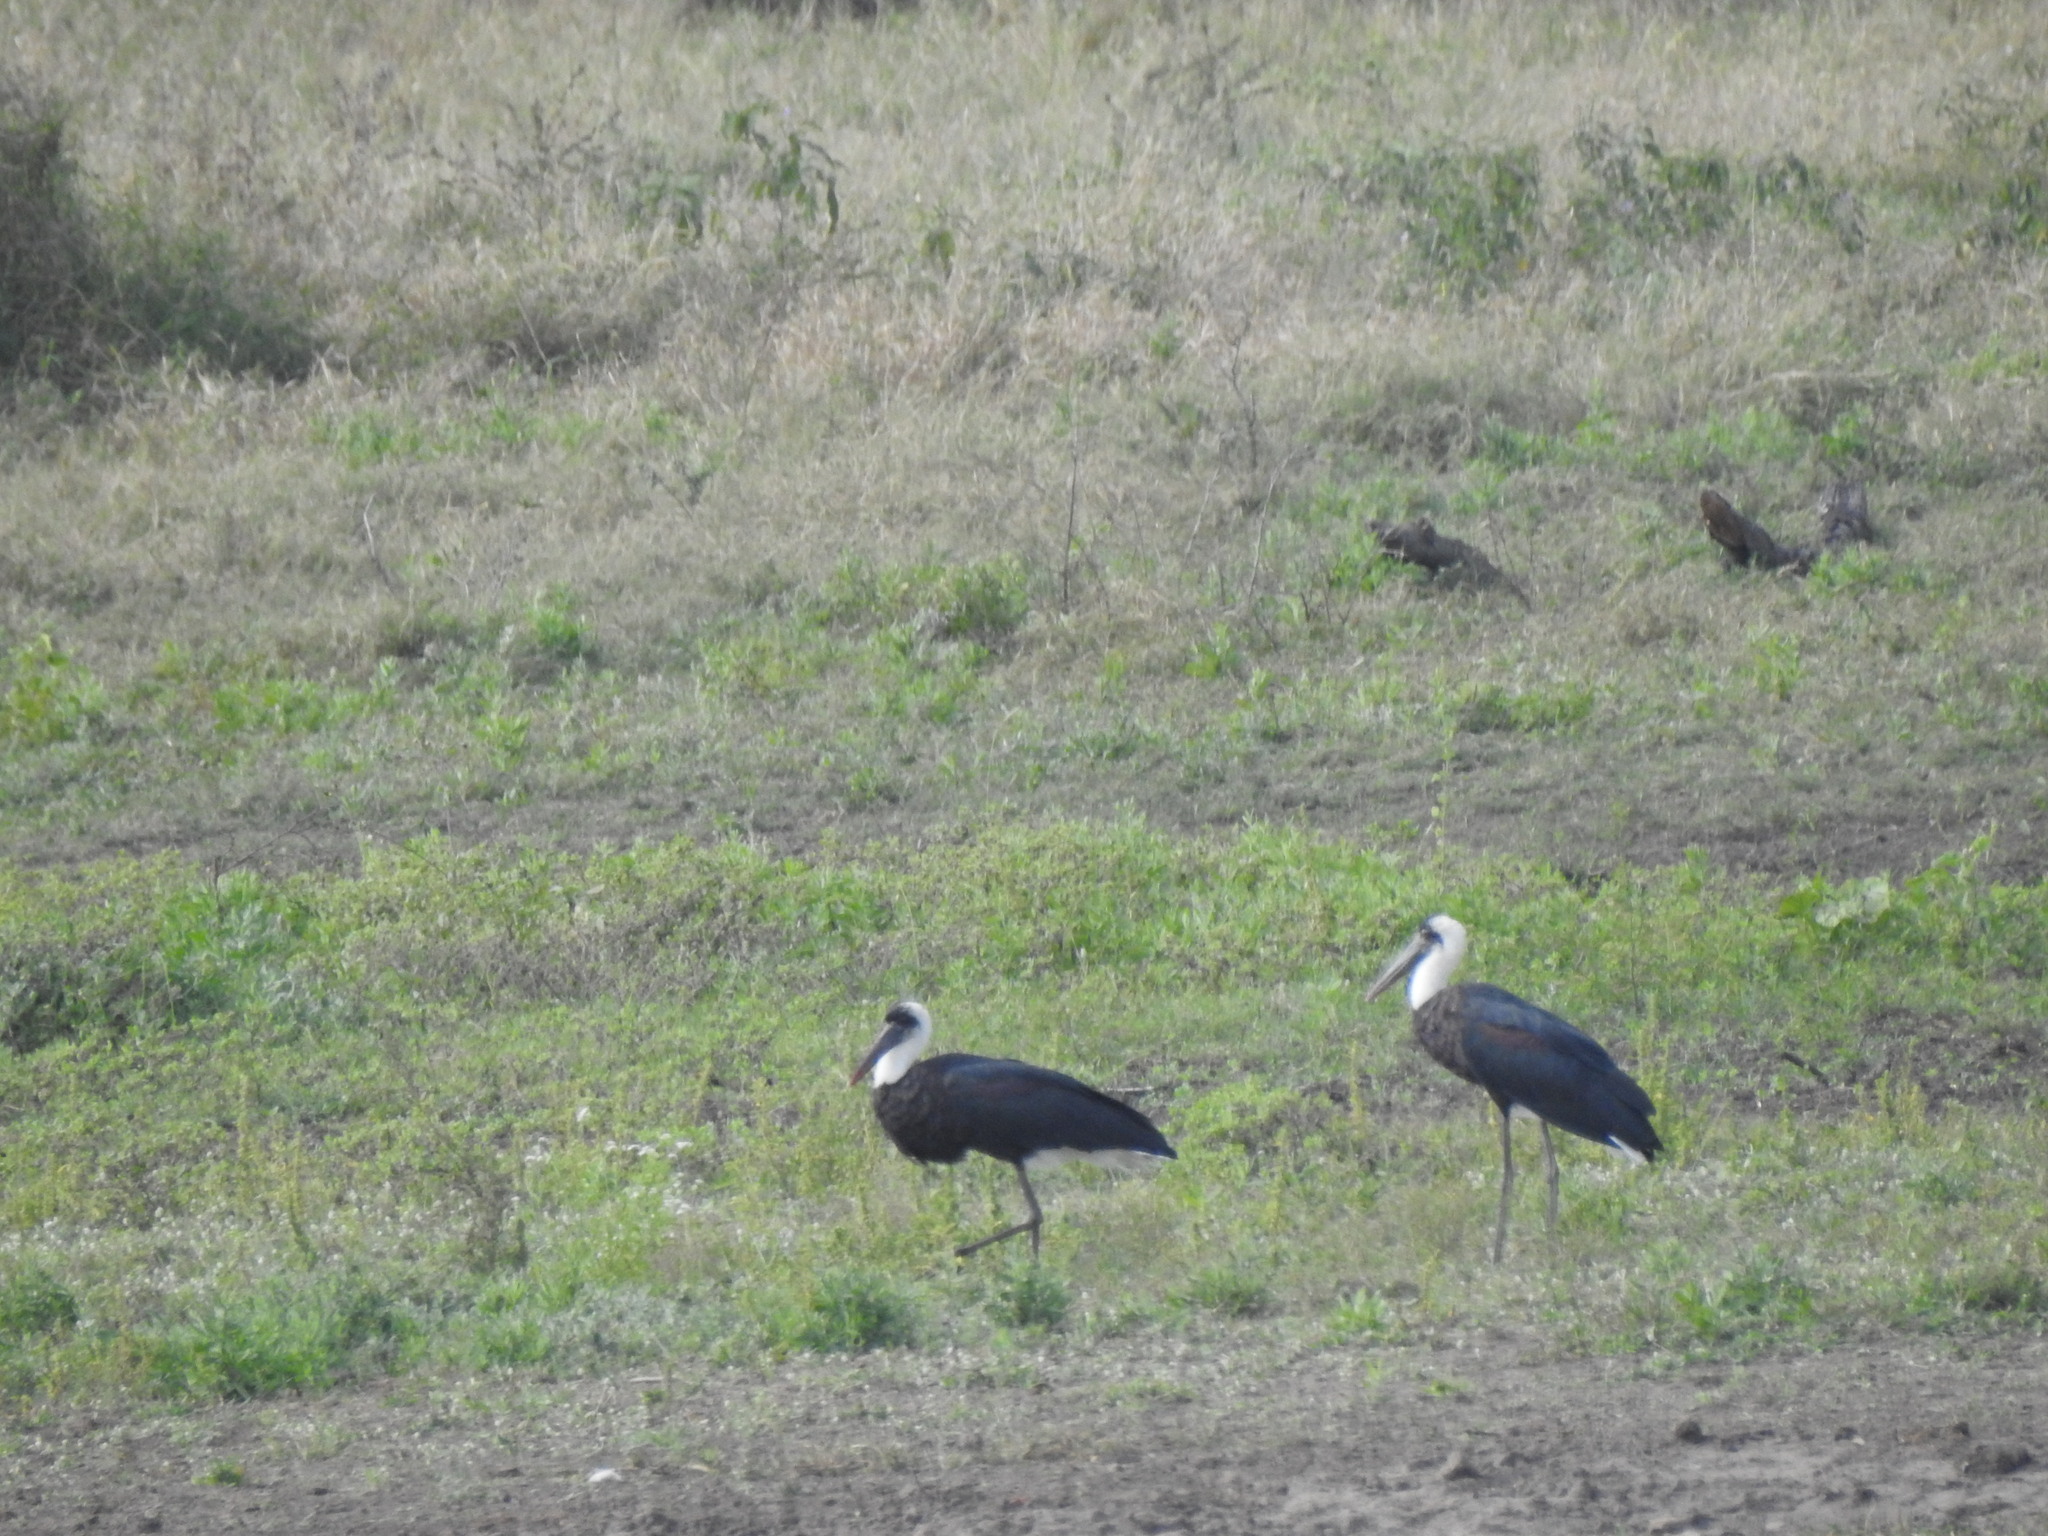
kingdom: Animalia
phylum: Chordata
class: Aves
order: Ciconiiformes
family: Ciconiidae
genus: Ciconia
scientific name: Ciconia microscelis
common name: African woollyneck
